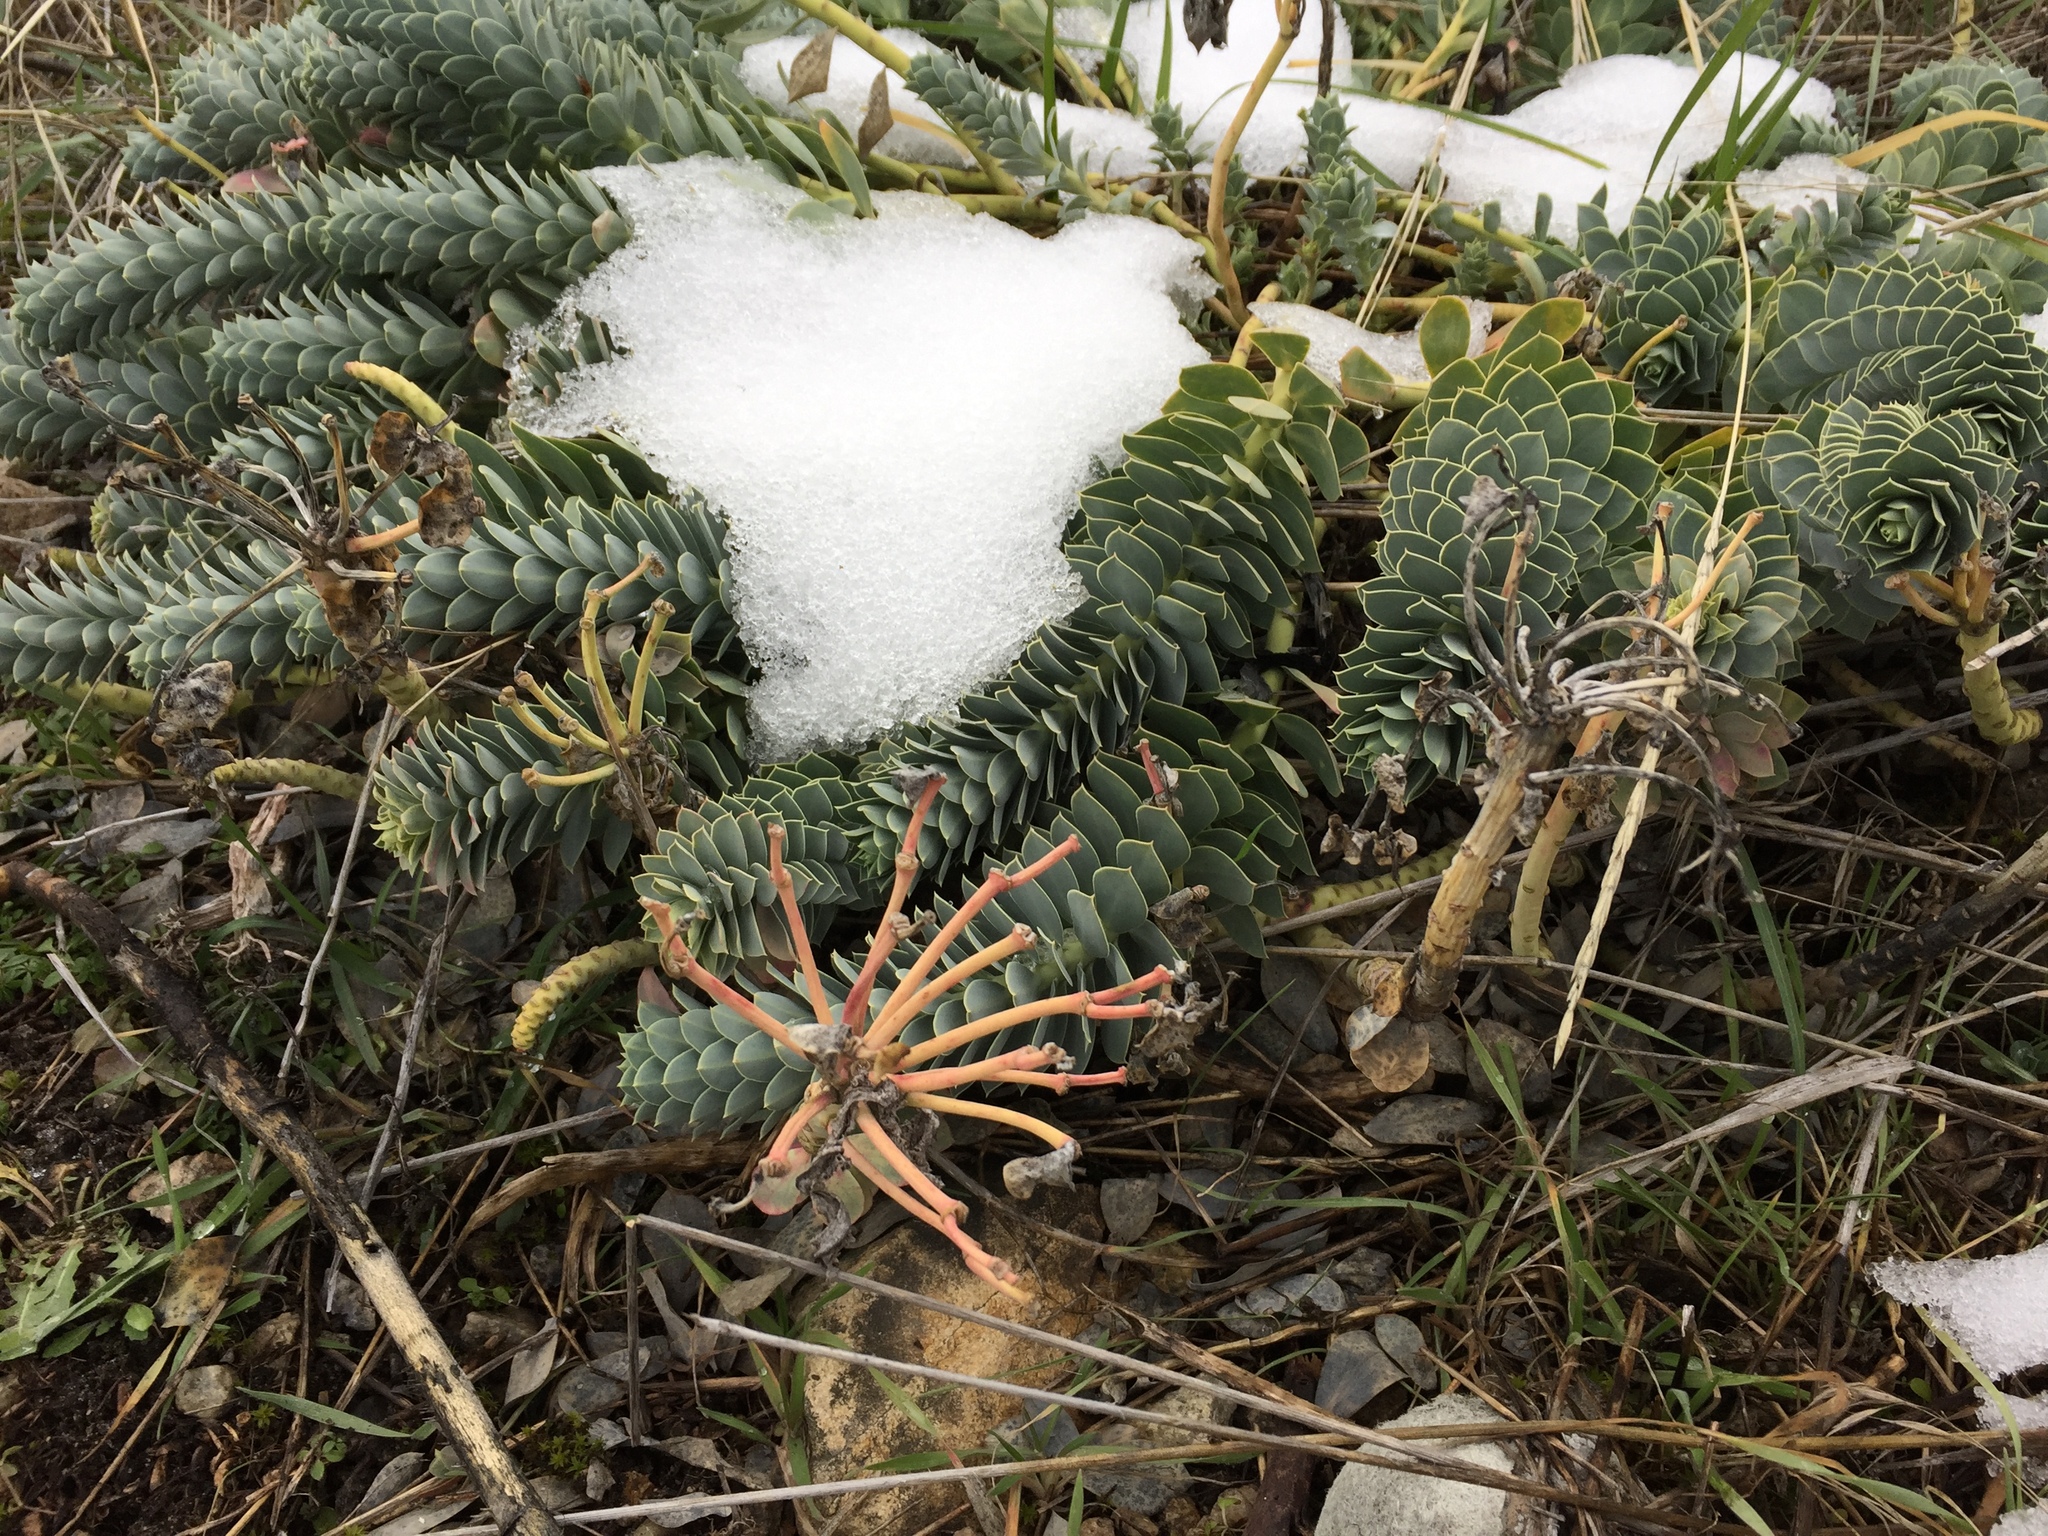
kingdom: Plantae
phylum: Tracheophyta
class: Magnoliopsida
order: Malpighiales
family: Euphorbiaceae
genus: Euphorbia
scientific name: Euphorbia myrsinites
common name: Myrtle spurge
